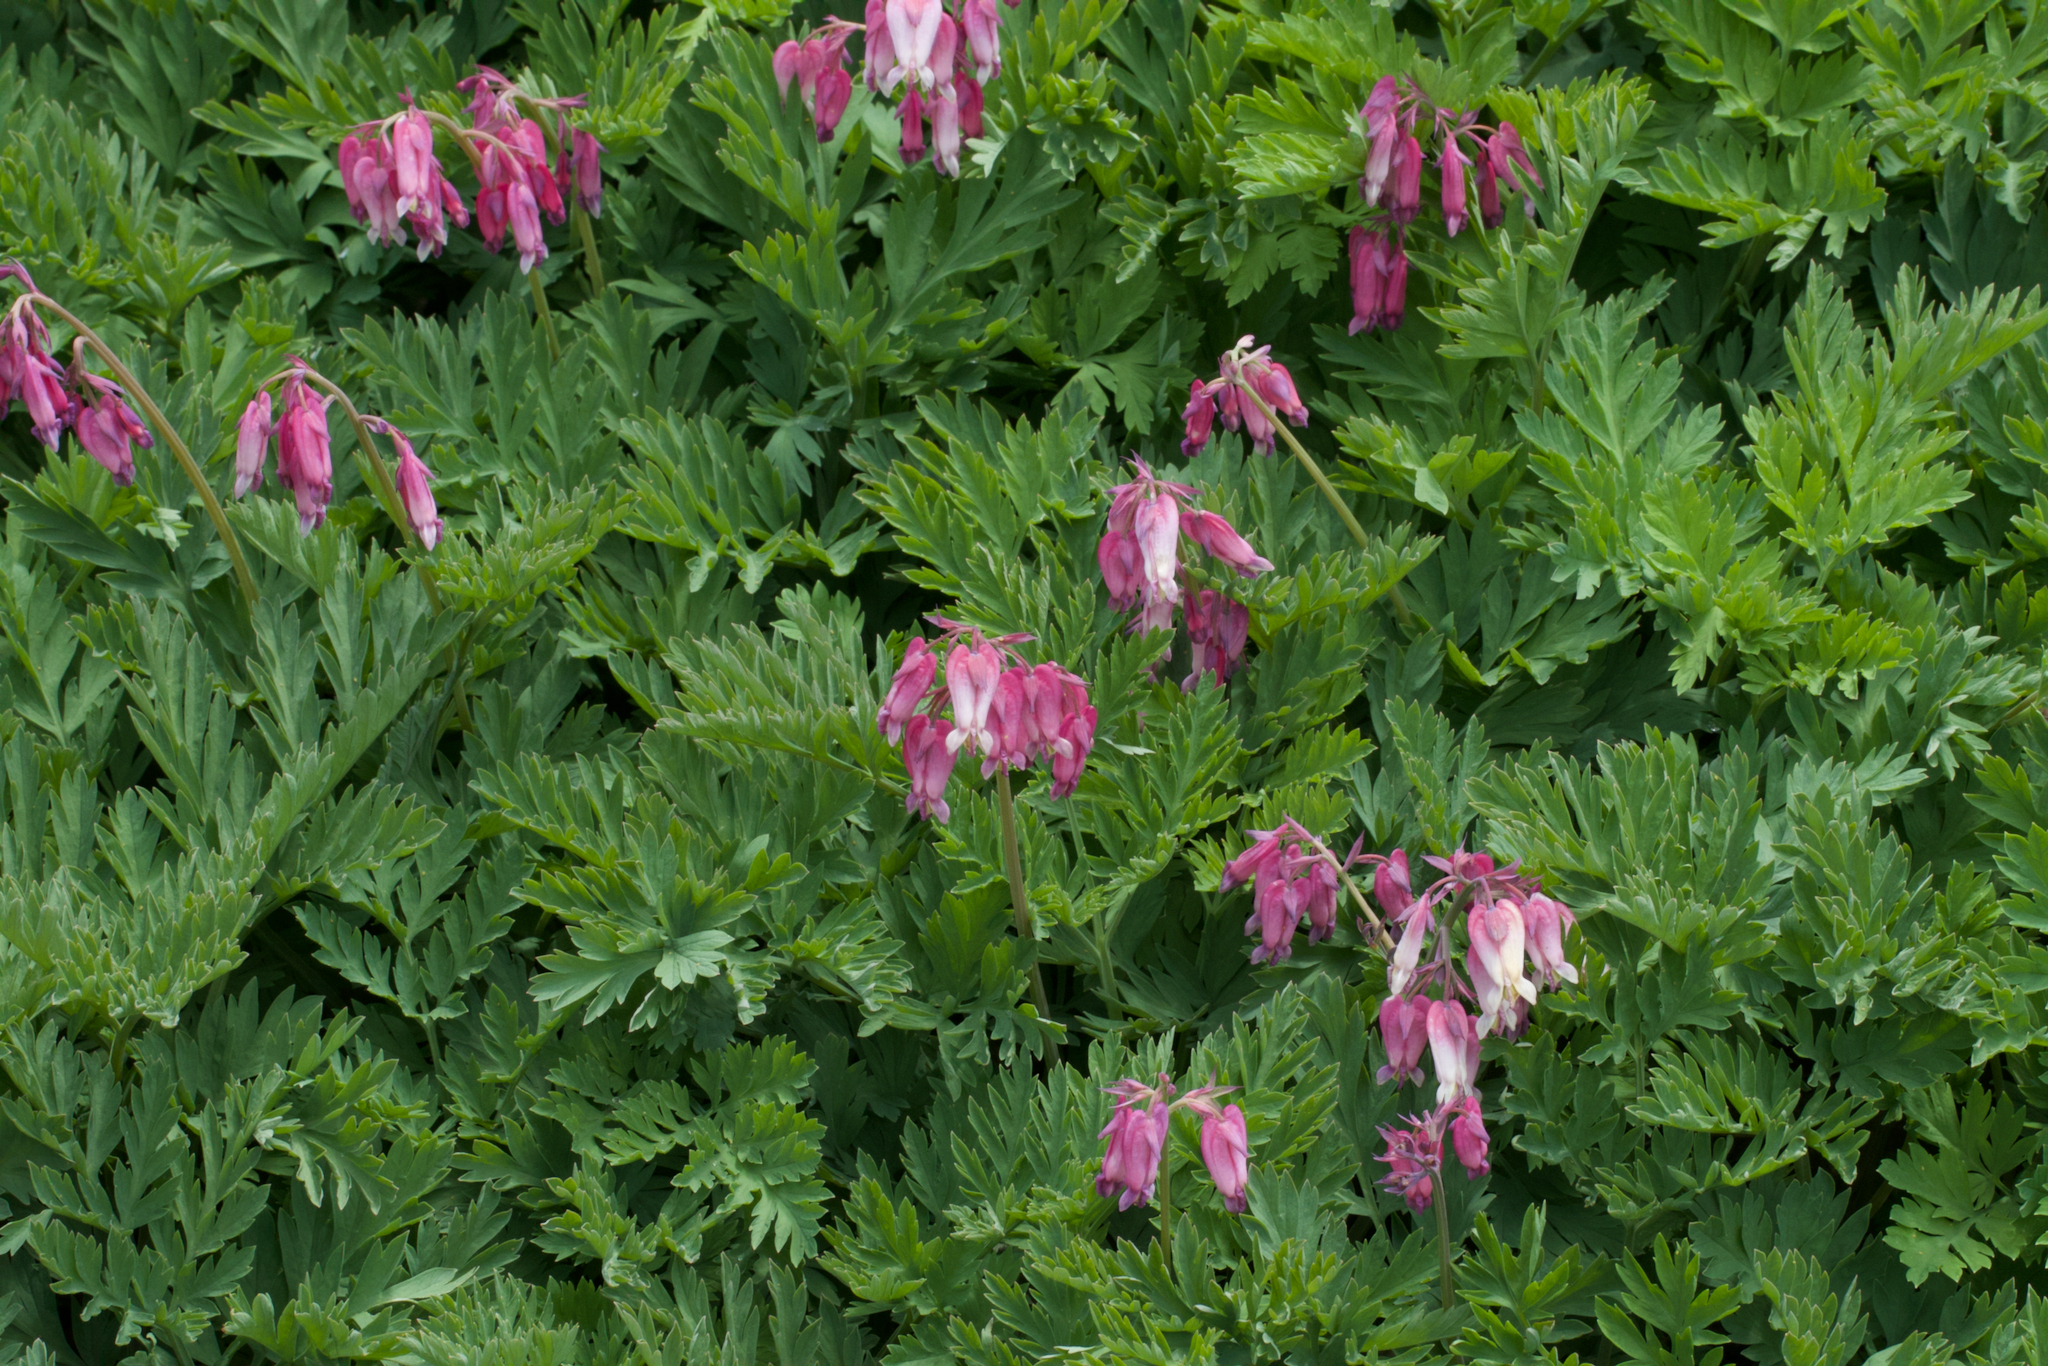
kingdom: Plantae
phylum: Tracheophyta
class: Magnoliopsida
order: Ranunculales
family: Papaveraceae
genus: Dicentra
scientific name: Dicentra formosa
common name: Bleeding-heart
